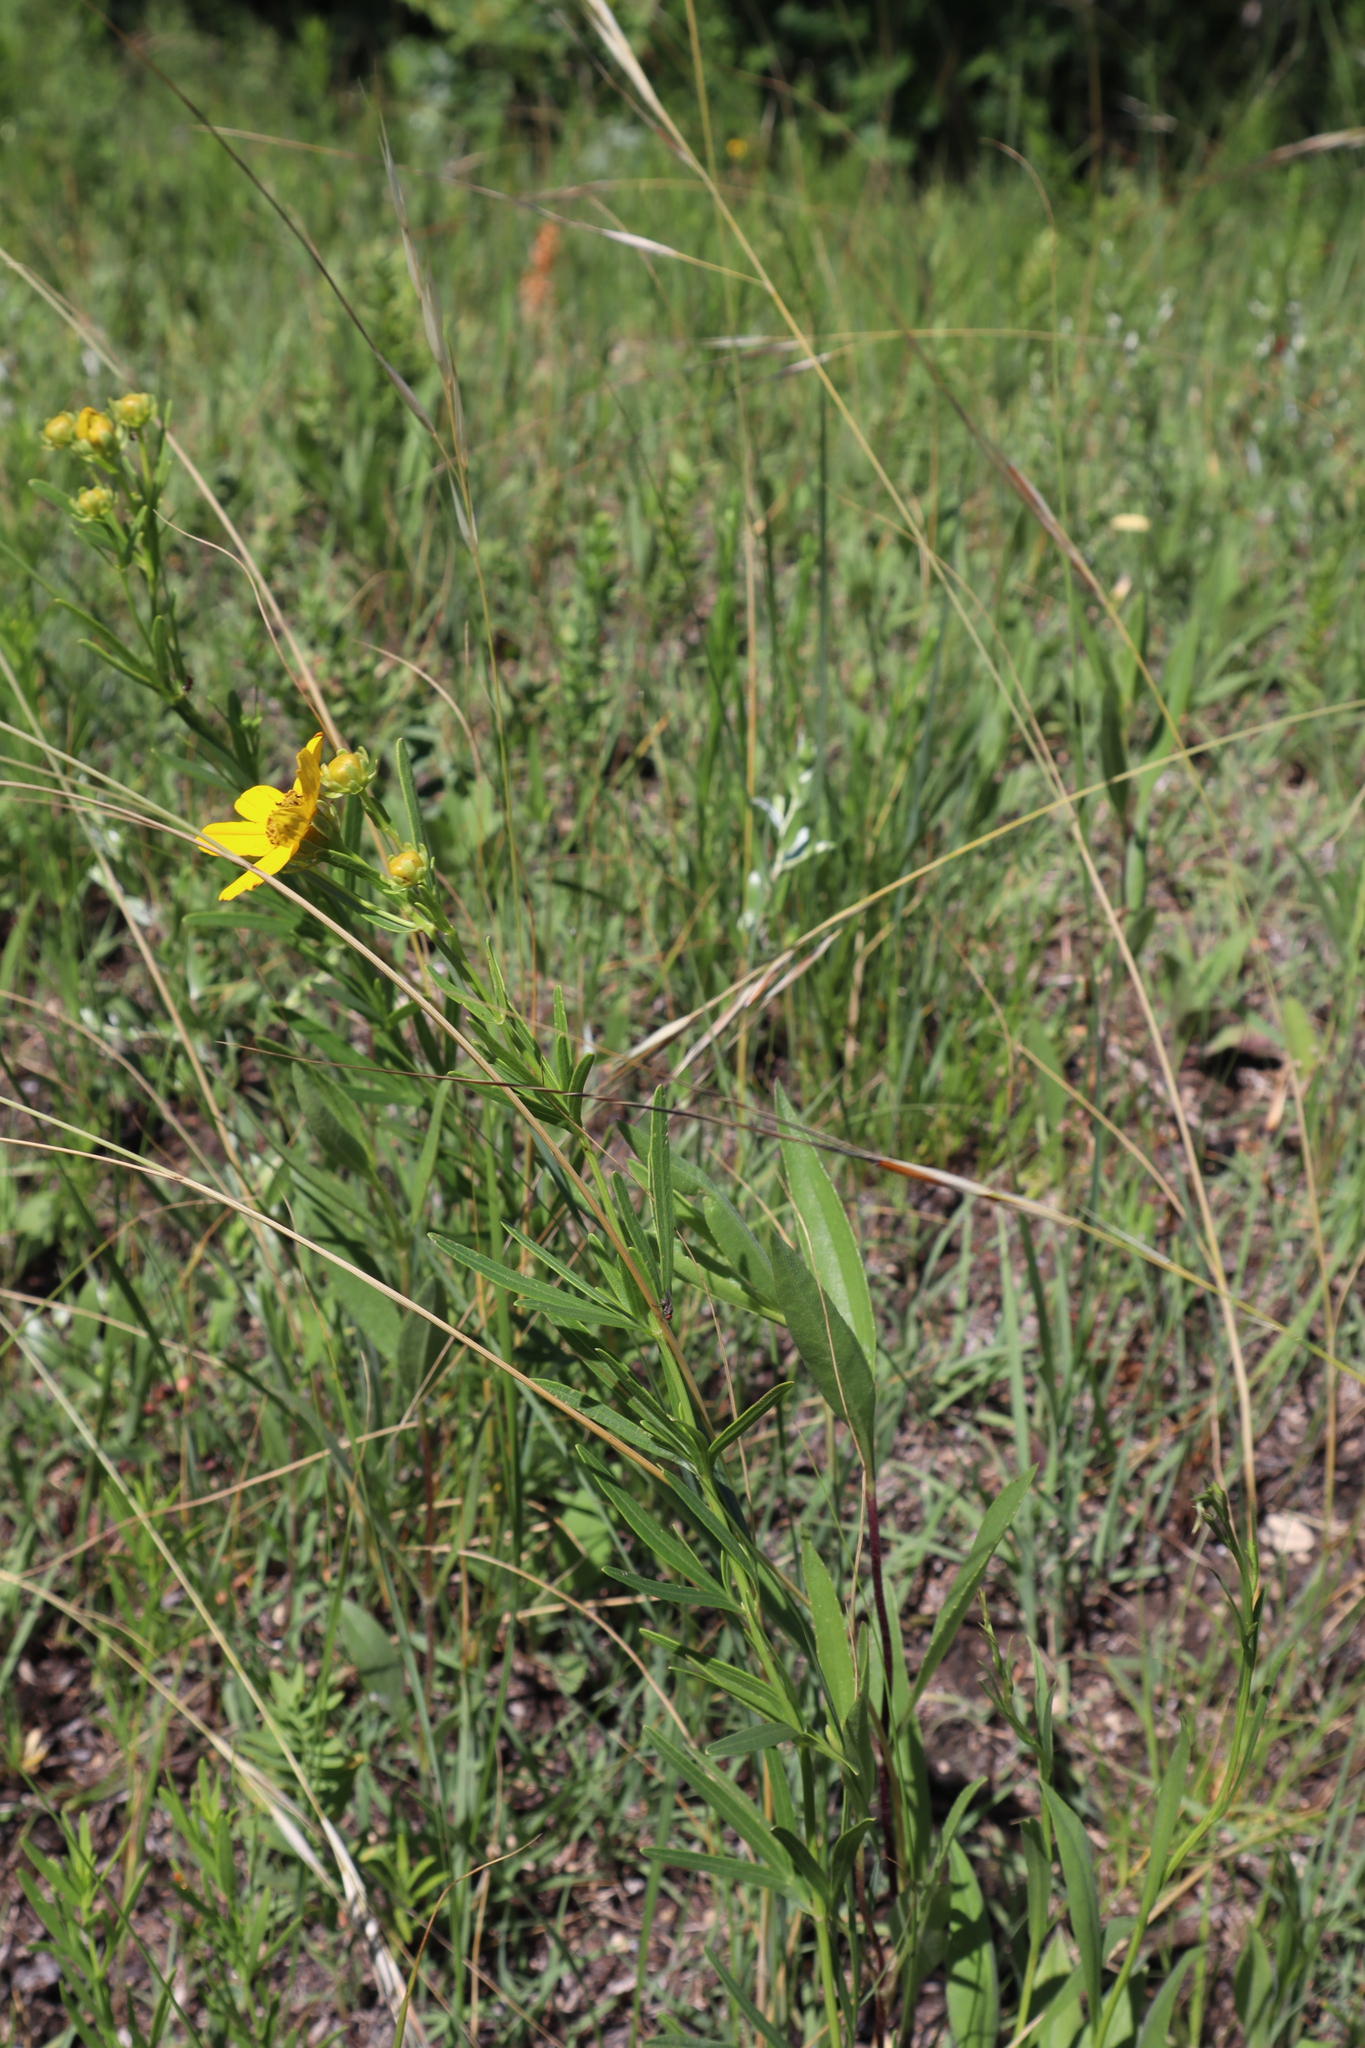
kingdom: Plantae
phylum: Tracheophyta
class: Magnoliopsida
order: Asterales
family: Asteraceae
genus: Coreopsis
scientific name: Coreopsis palmata
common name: Prairie coreopsis
